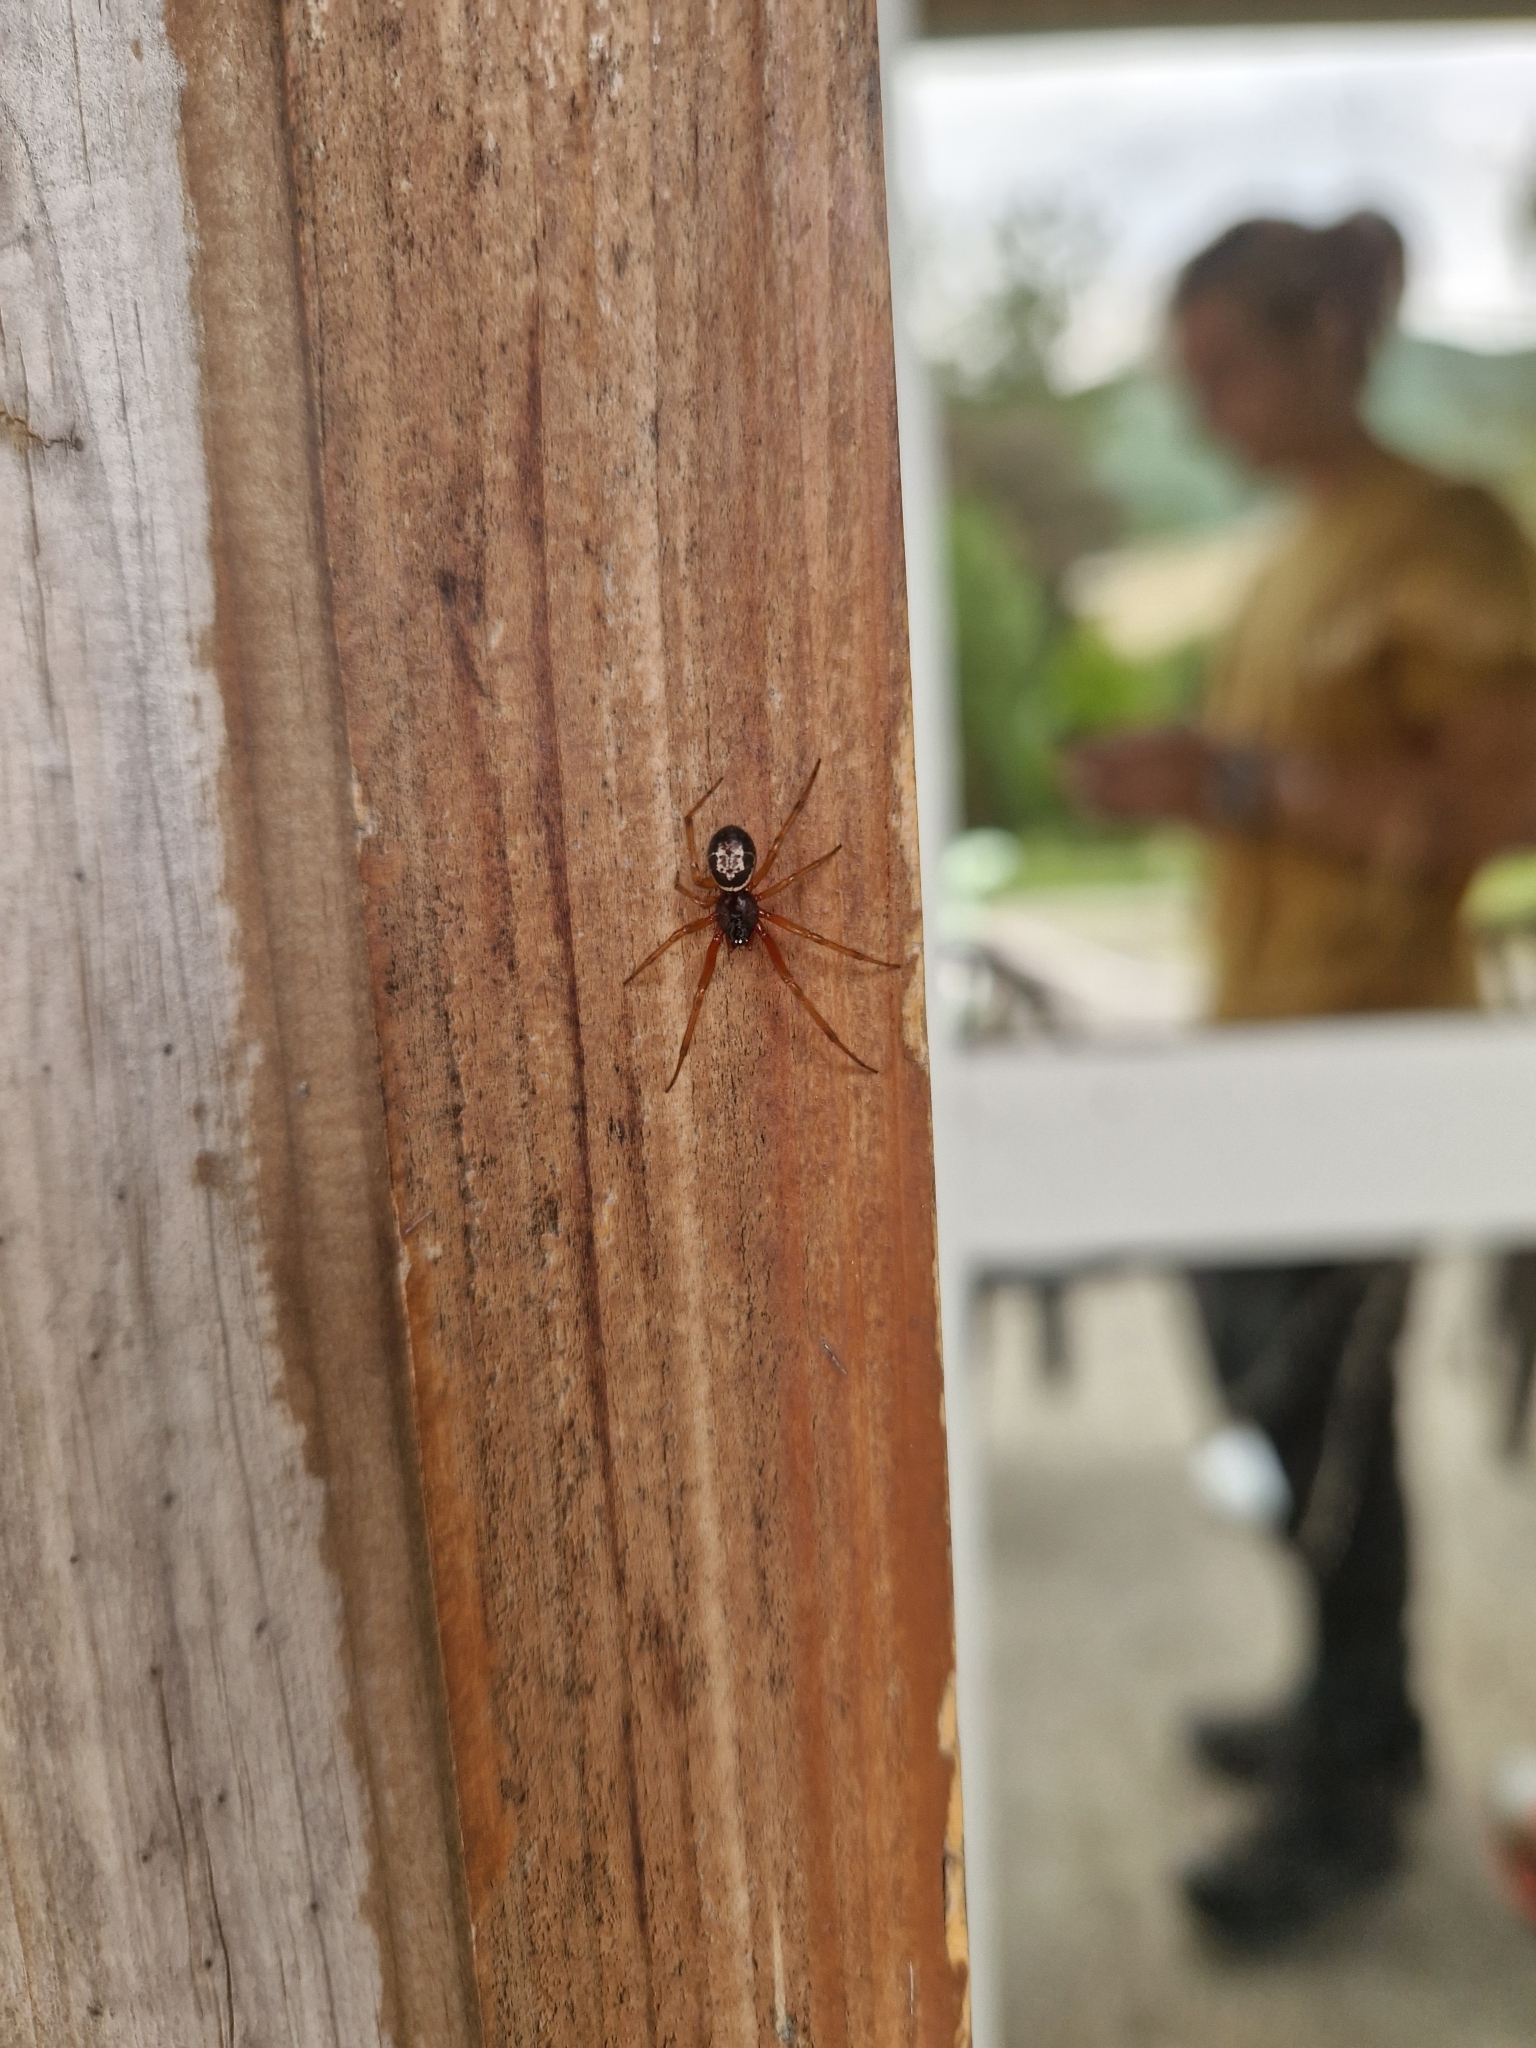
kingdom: Animalia
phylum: Arthropoda
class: Arachnida
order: Araneae
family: Theridiidae
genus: Steatoda
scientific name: Steatoda nobilis
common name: Cobweb weaver
